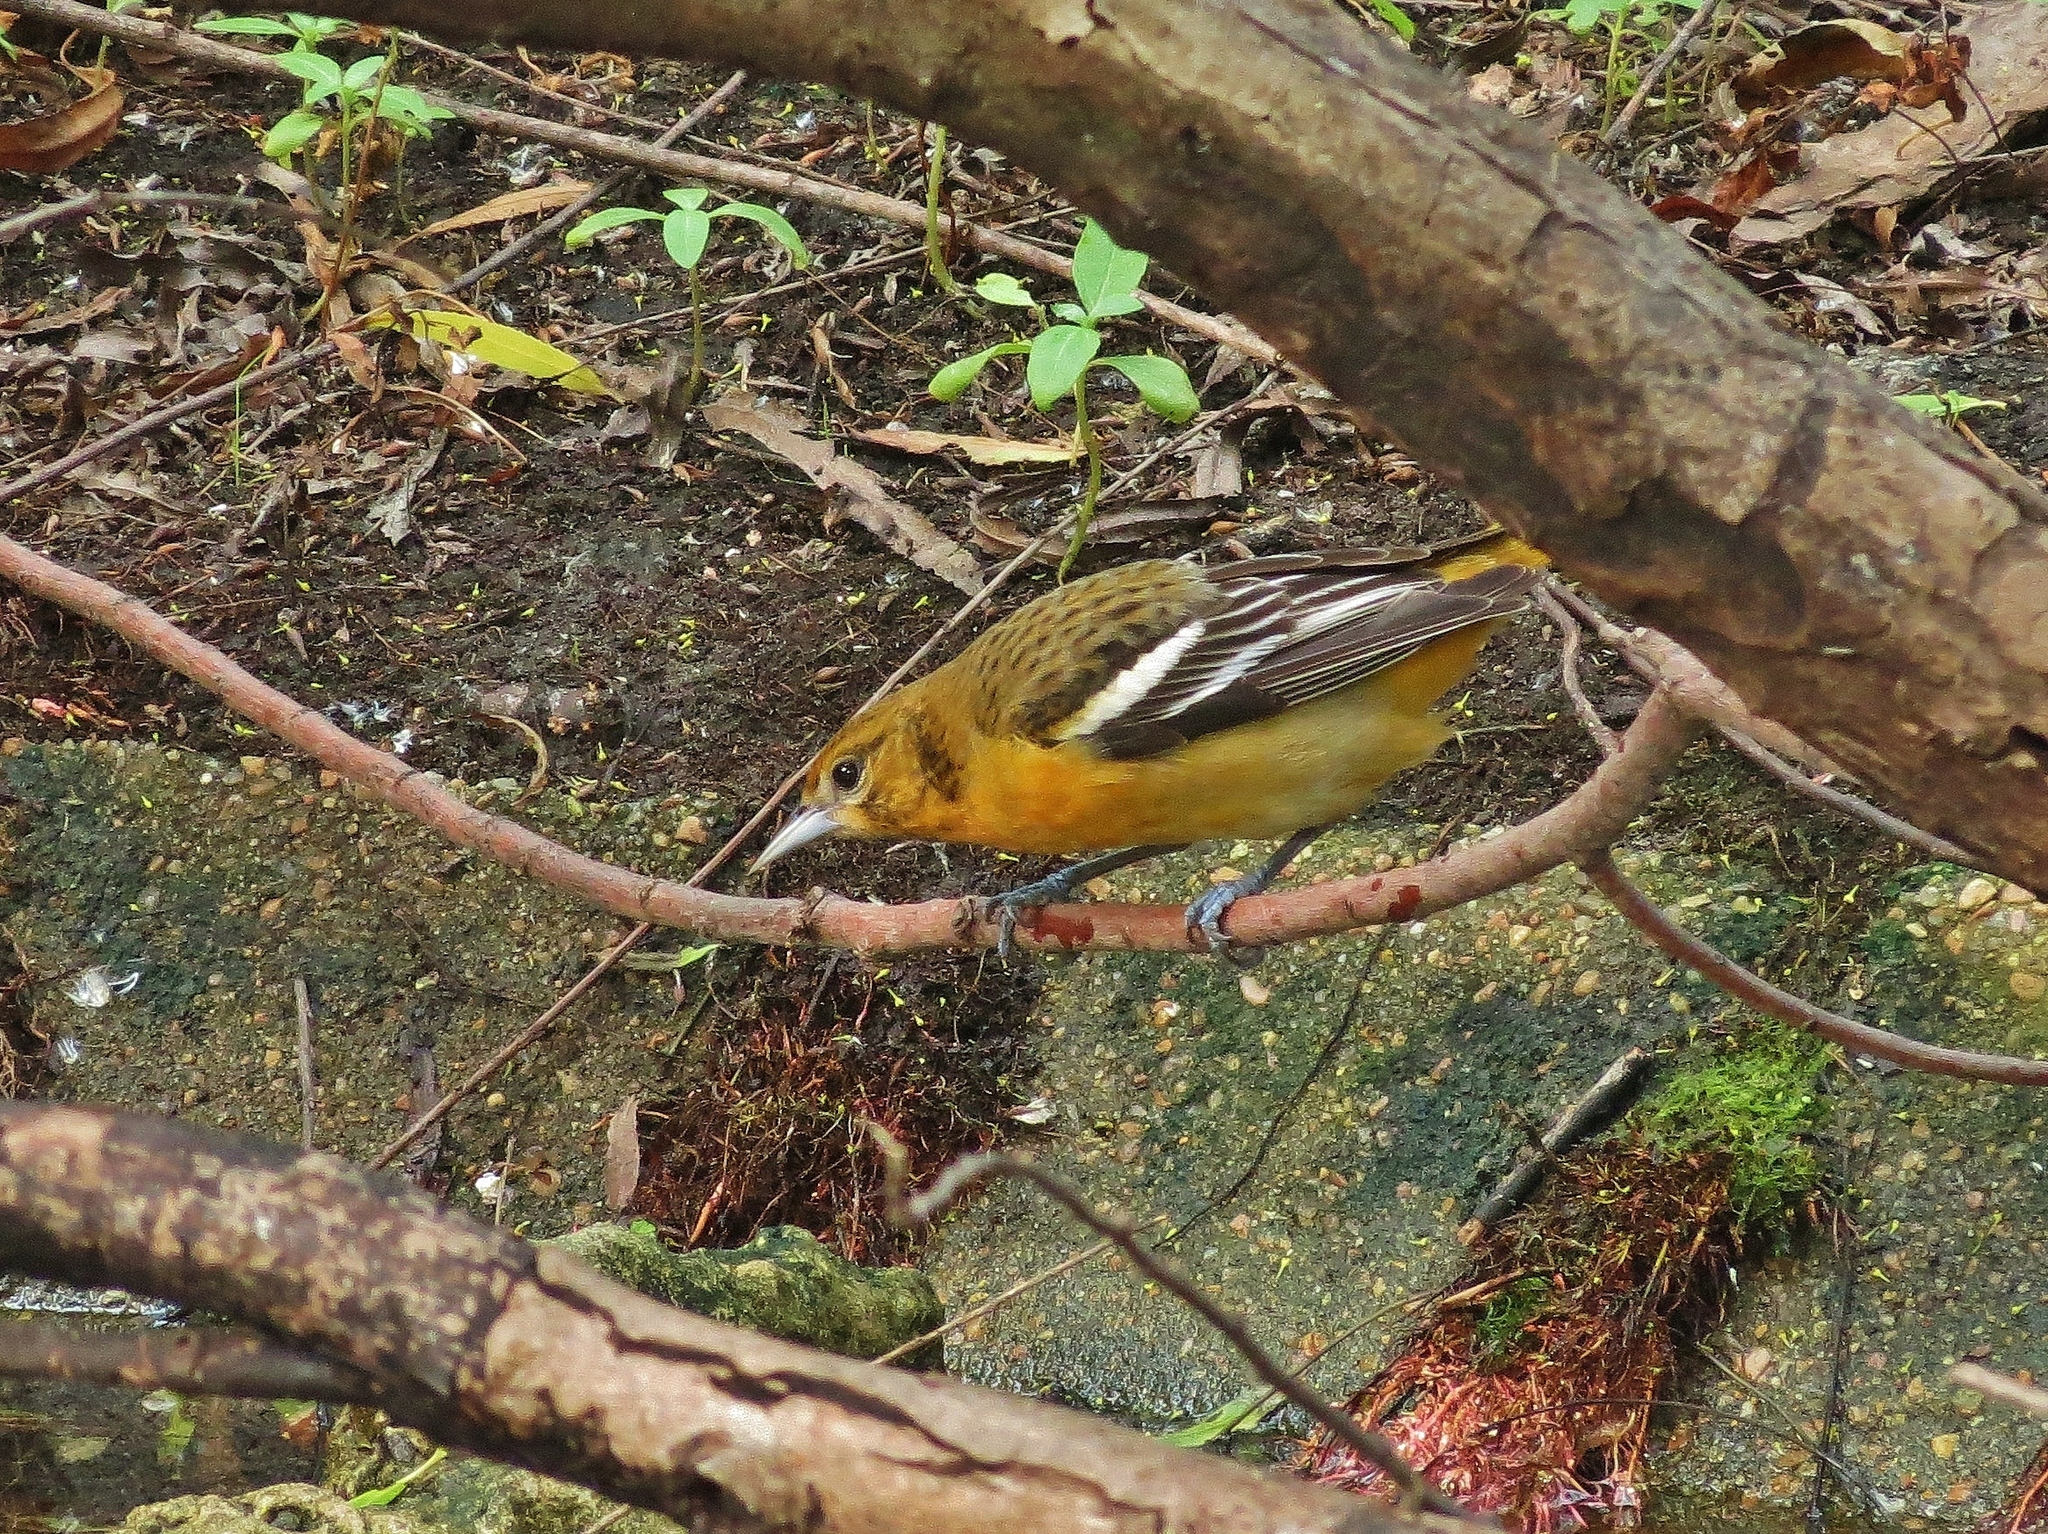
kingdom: Animalia
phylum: Chordata
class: Aves
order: Passeriformes
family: Icteridae
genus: Icterus
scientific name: Icterus galbula
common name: Baltimore oriole
